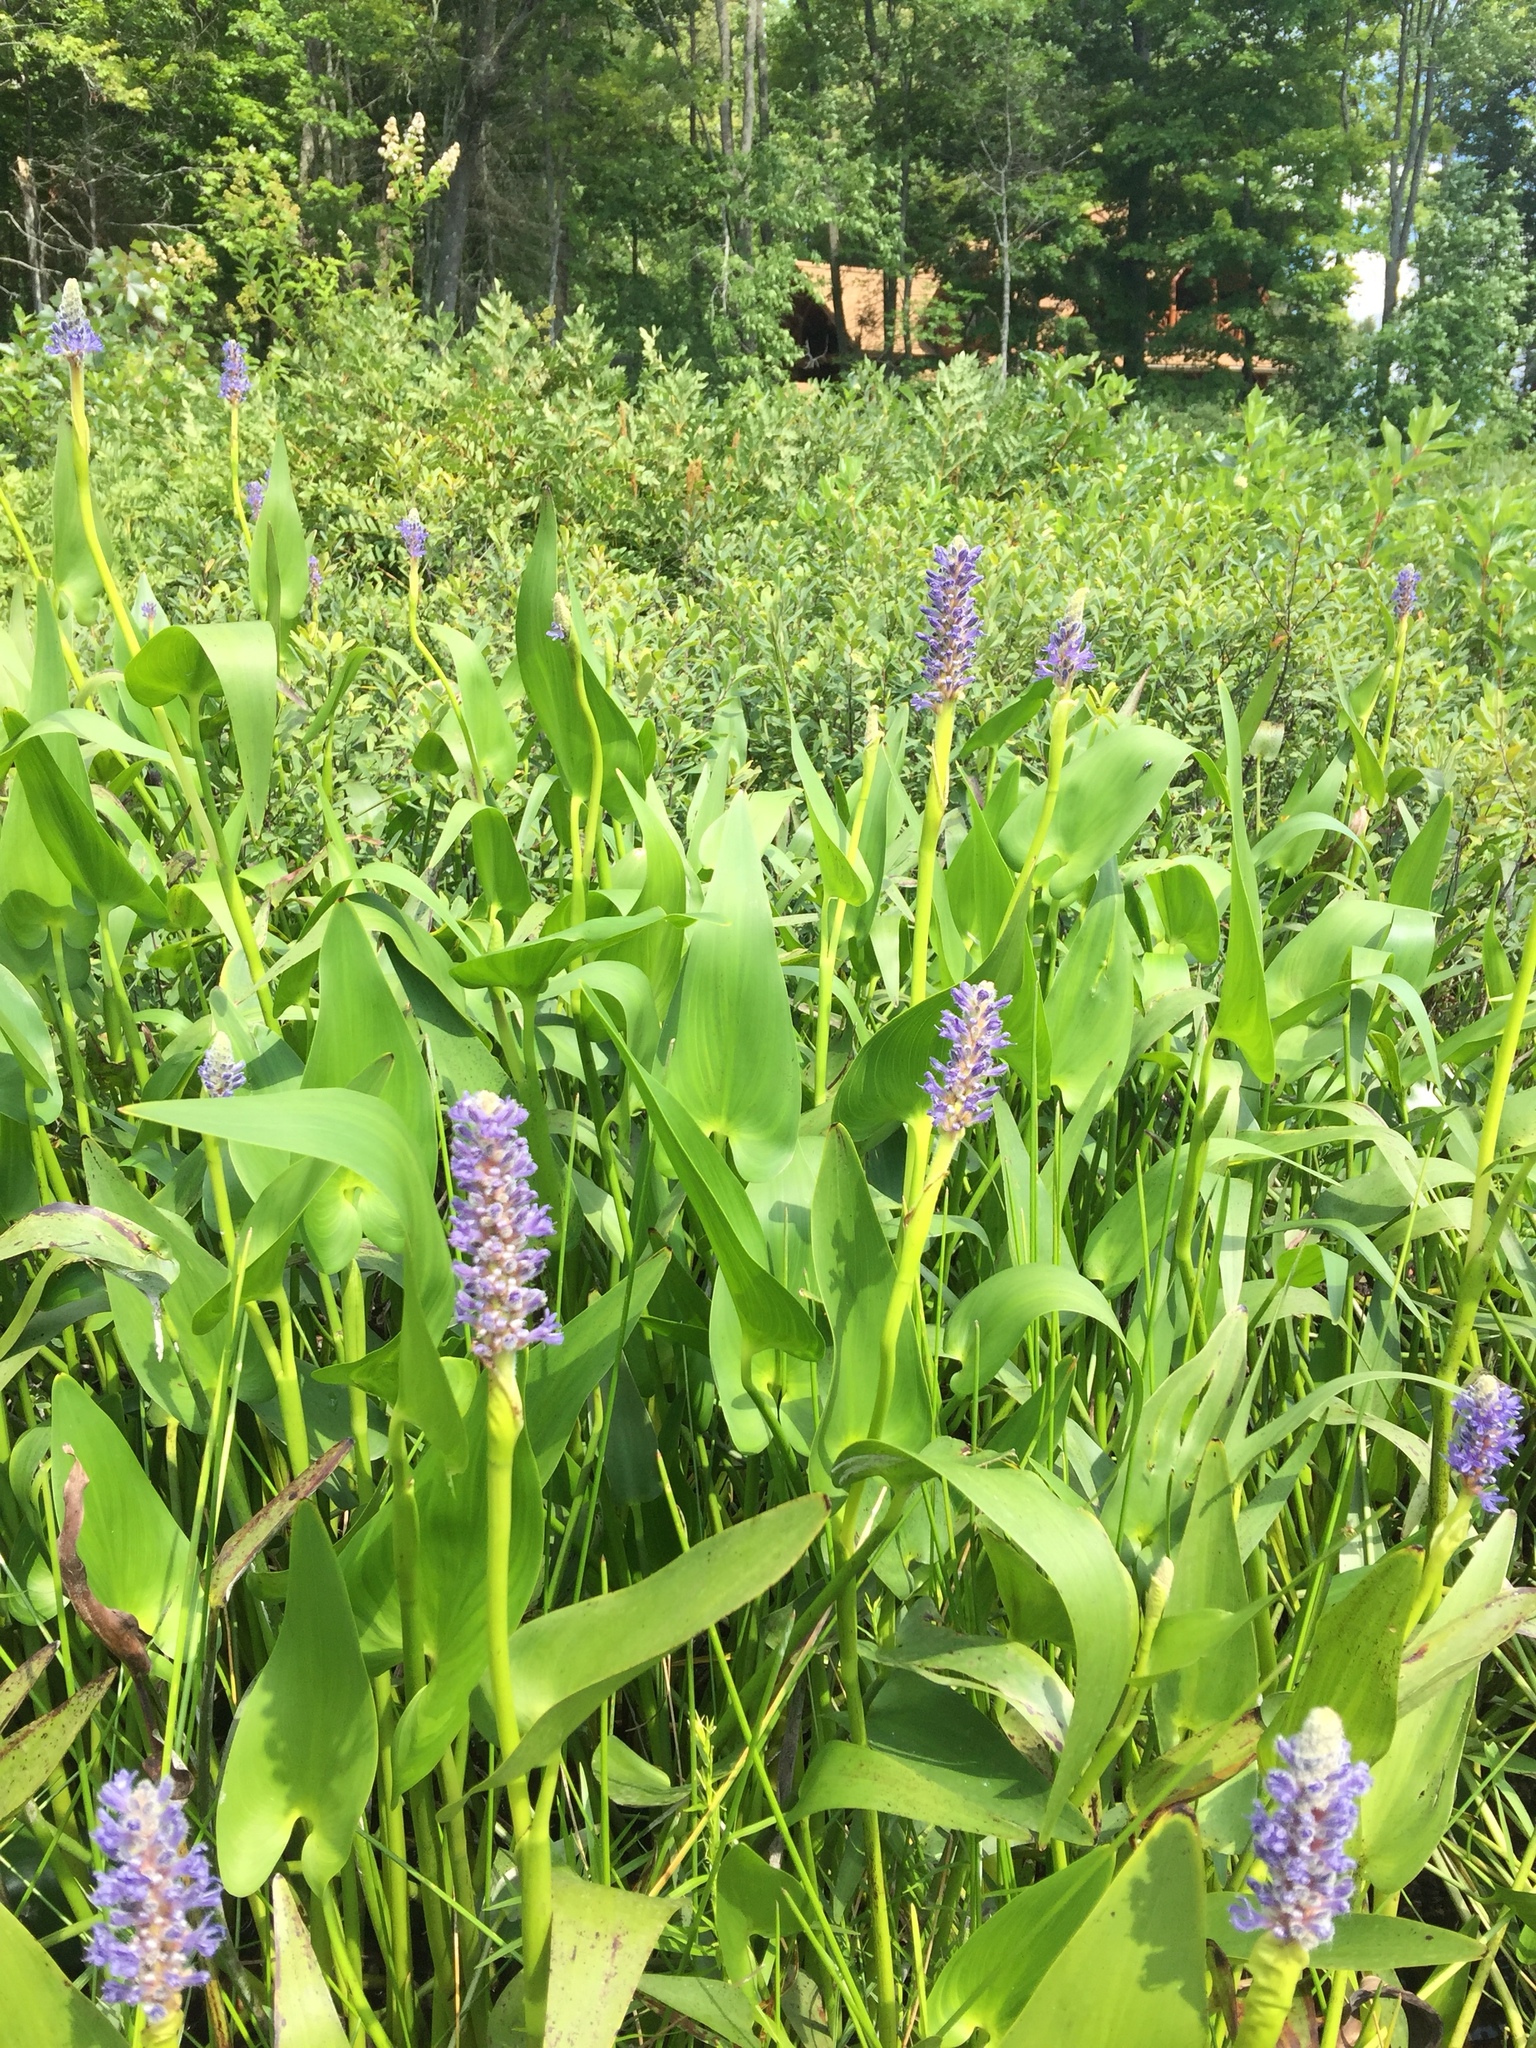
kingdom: Plantae
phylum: Tracheophyta
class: Liliopsida
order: Commelinales
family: Pontederiaceae
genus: Pontederia
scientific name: Pontederia cordata
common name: Pickerelweed
